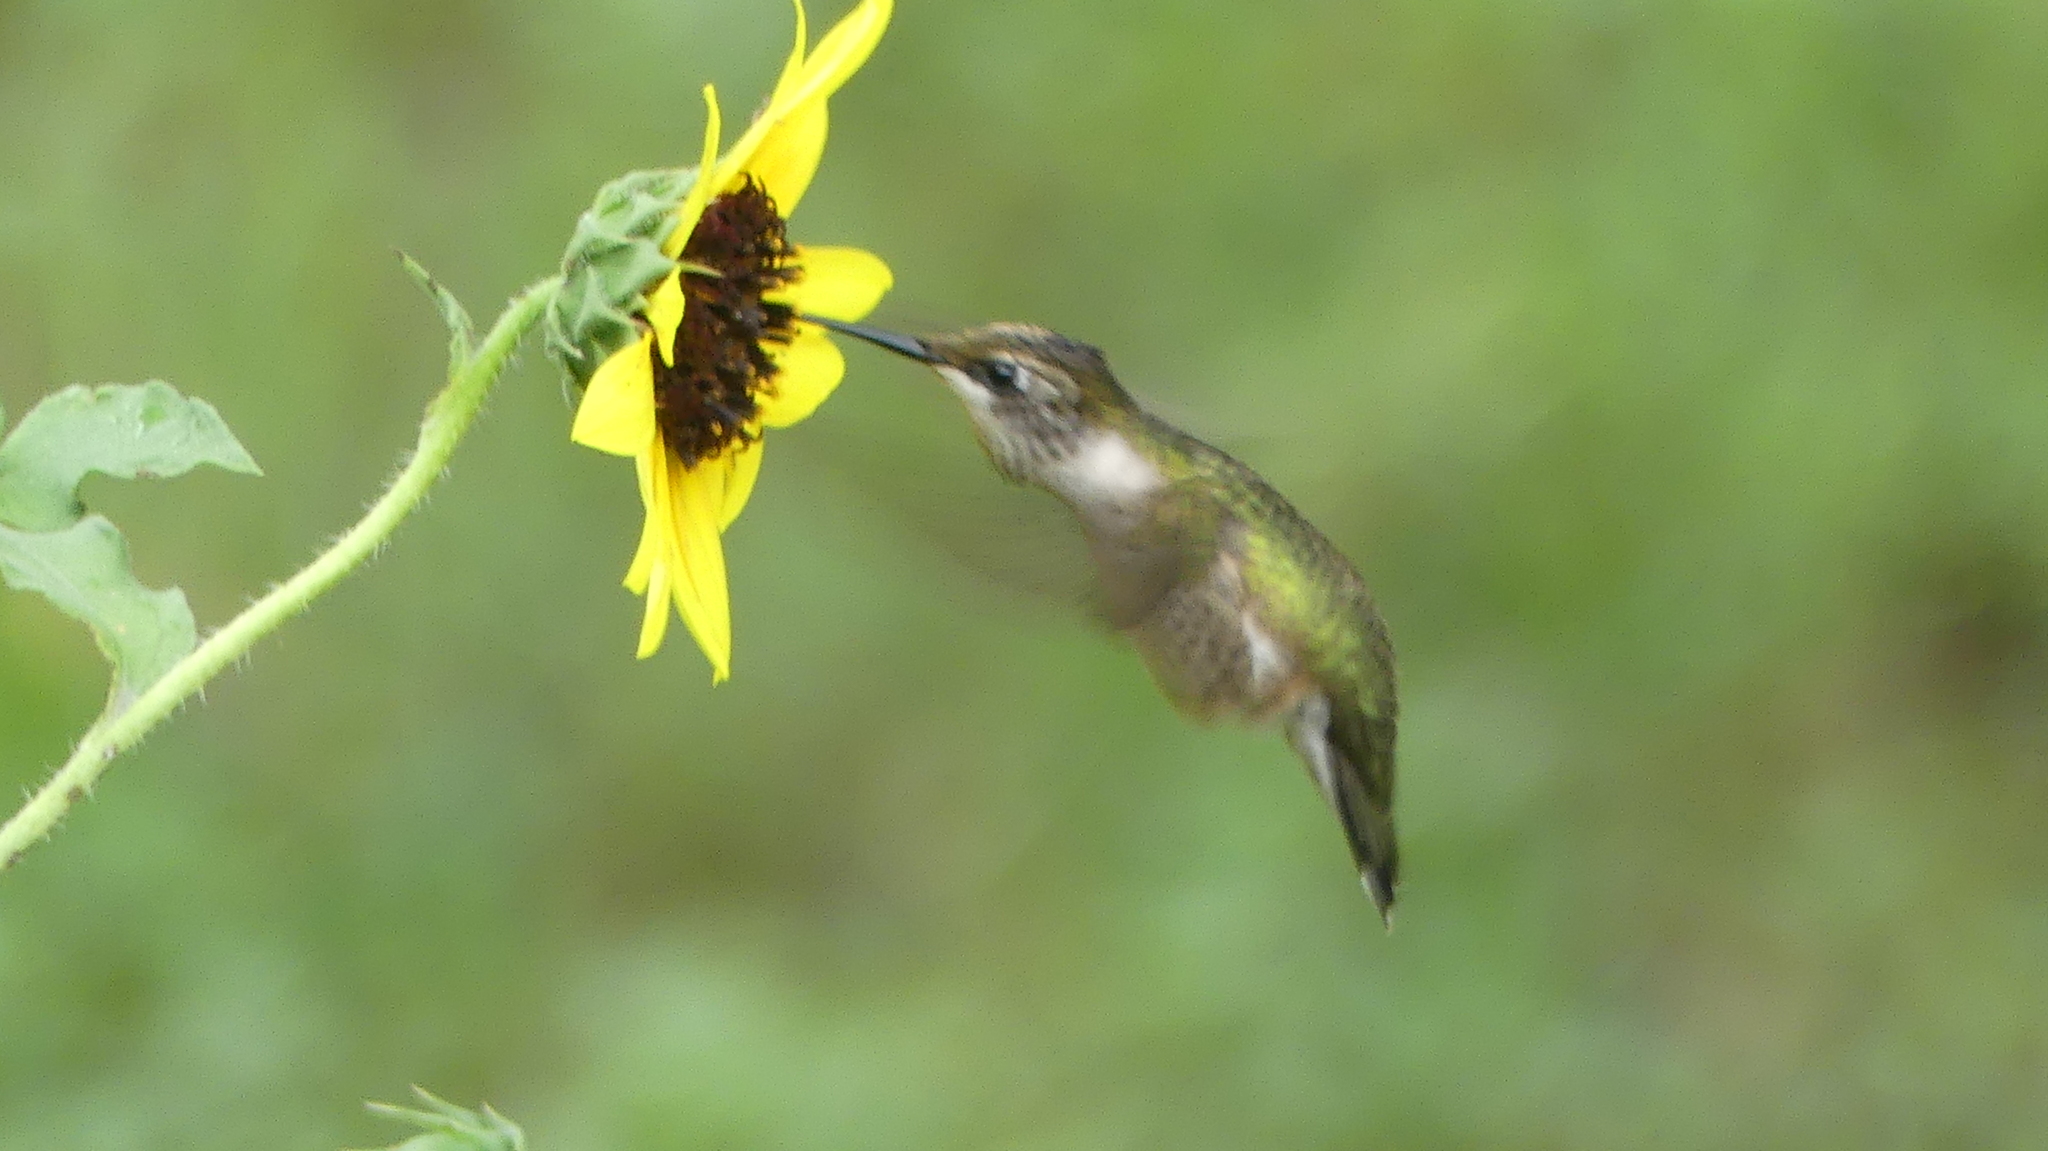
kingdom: Animalia
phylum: Chordata
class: Aves
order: Apodiformes
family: Trochilidae
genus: Archilochus
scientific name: Archilochus colubris
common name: Ruby-throated hummingbird
